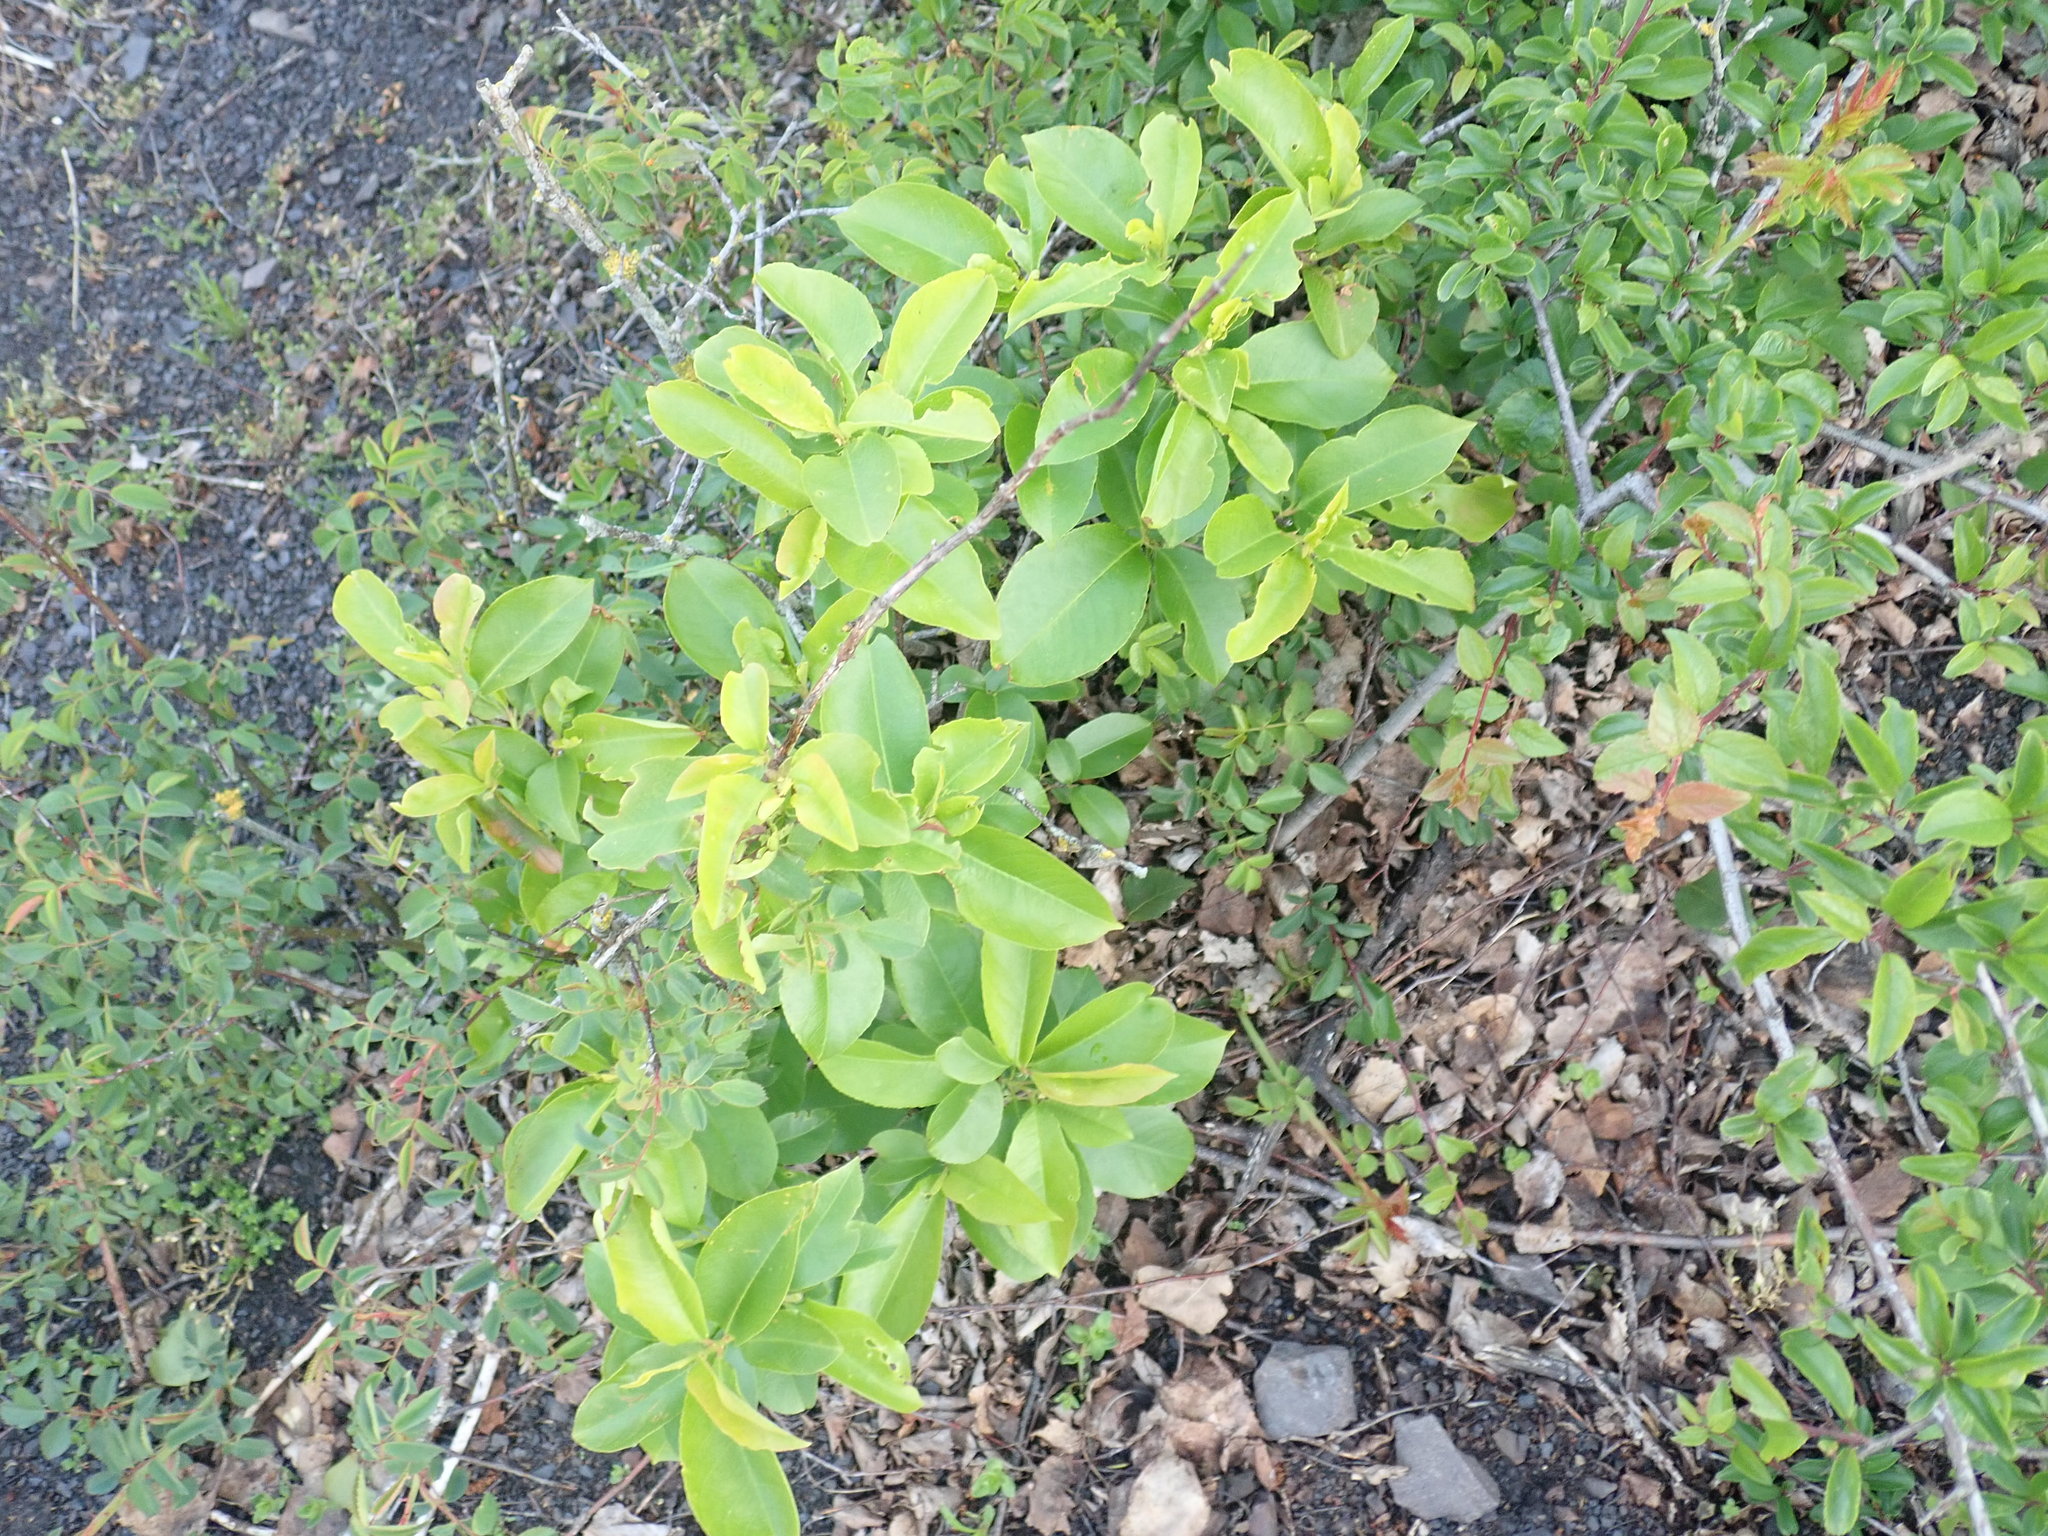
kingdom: Plantae
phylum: Tracheophyta
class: Magnoliopsida
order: Rosales
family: Rosaceae
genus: Prunus
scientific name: Prunus serotina
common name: Black cherry
